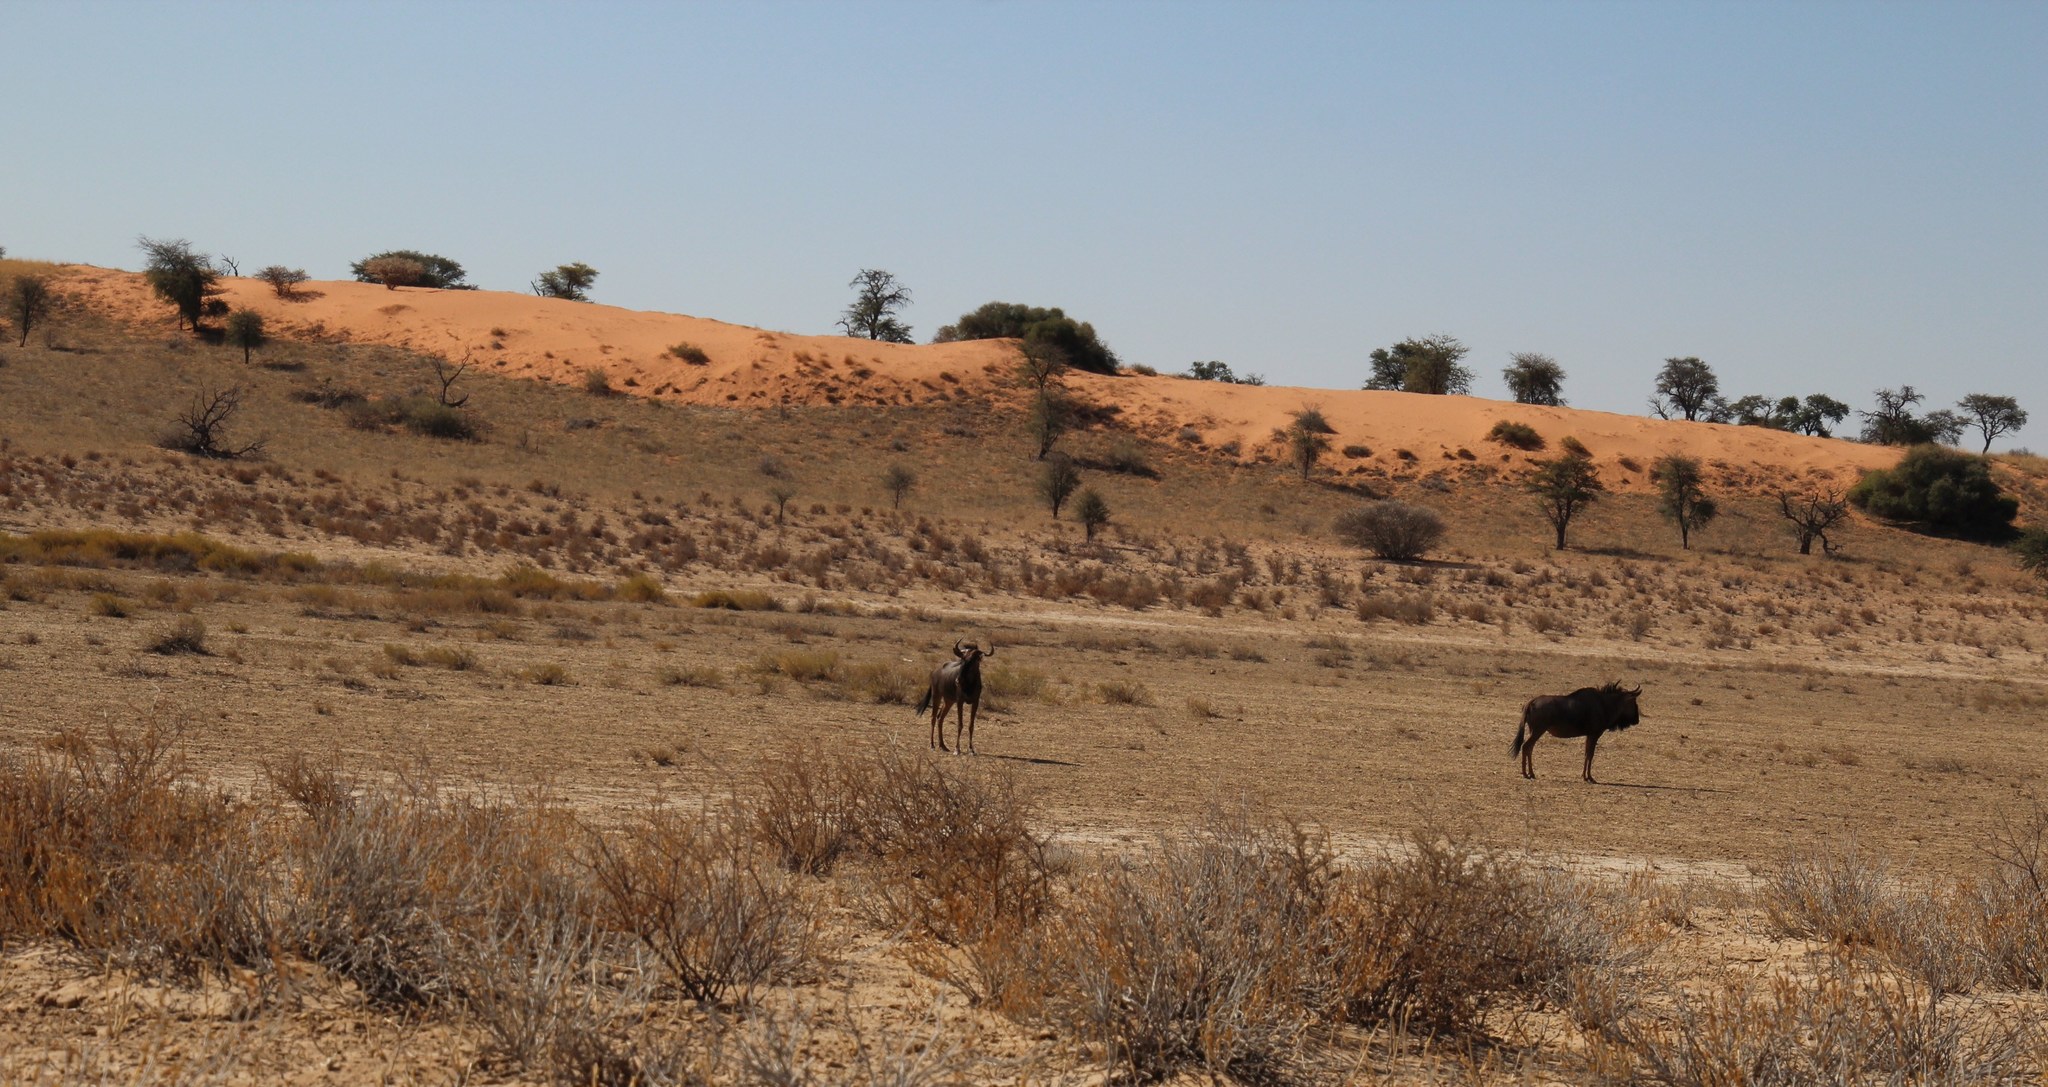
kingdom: Animalia
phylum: Chordata
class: Mammalia
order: Artiodactyla
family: Bovidae
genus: Connochaetes
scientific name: Connochaetes taurinus
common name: Blue wildebeest
